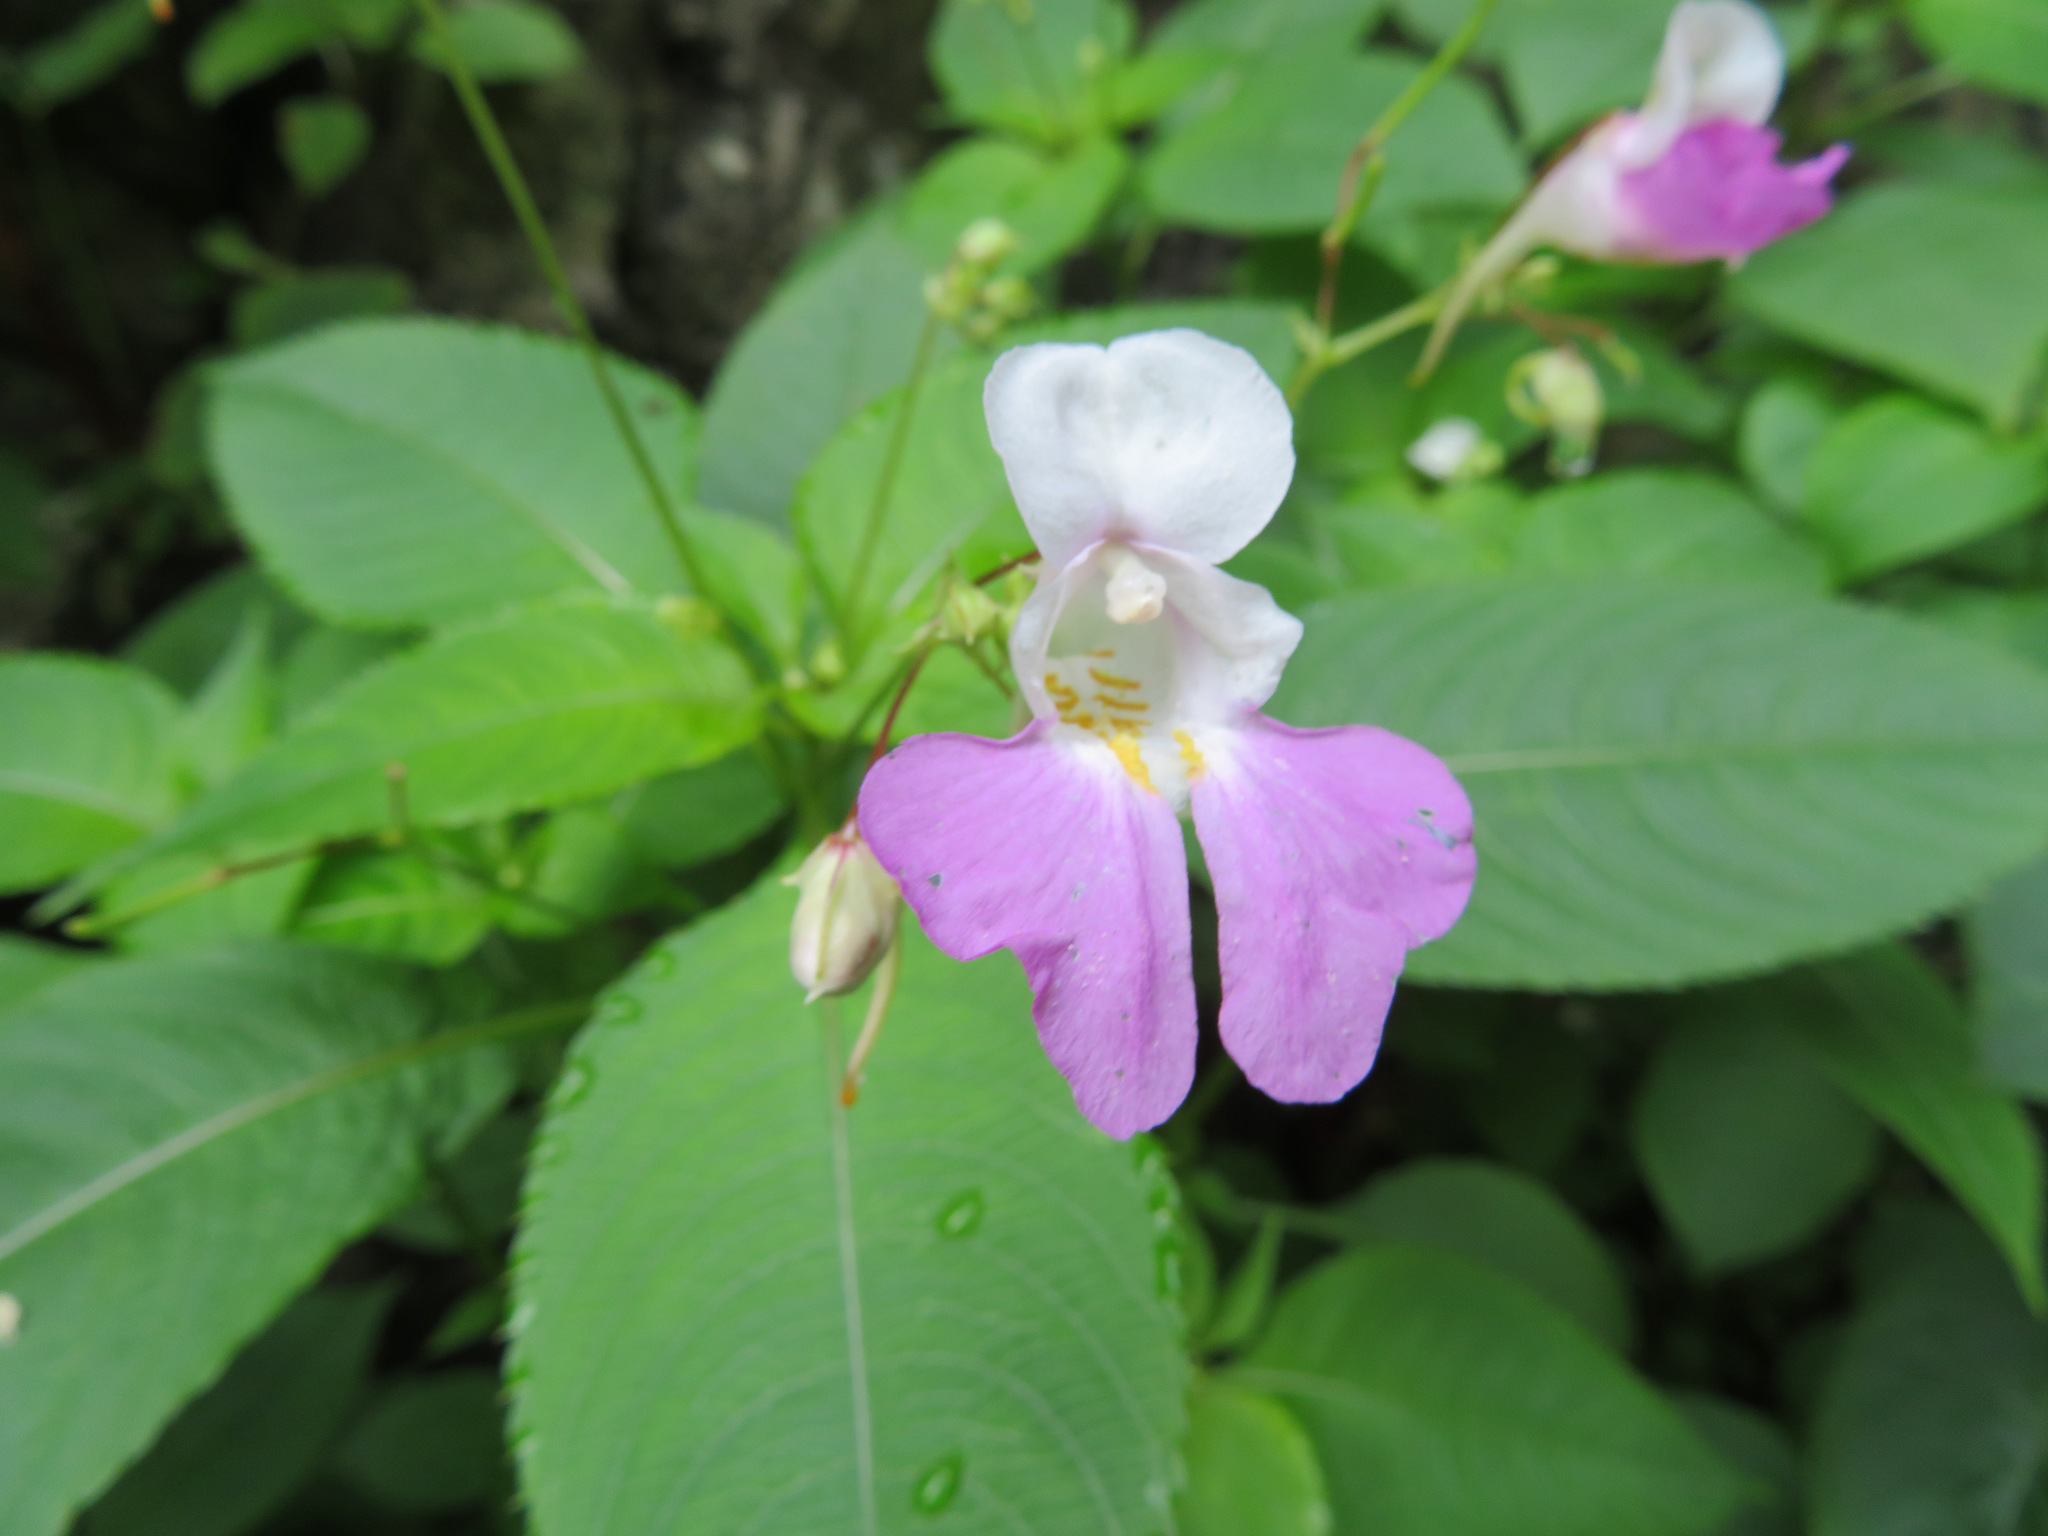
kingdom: Plantae
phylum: Tracheophyta
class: Magnoliopsida
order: Ericales
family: Balsaminaceae
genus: Impatiens
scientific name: Impatiens balfourii
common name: Balfour's touch-me-not
